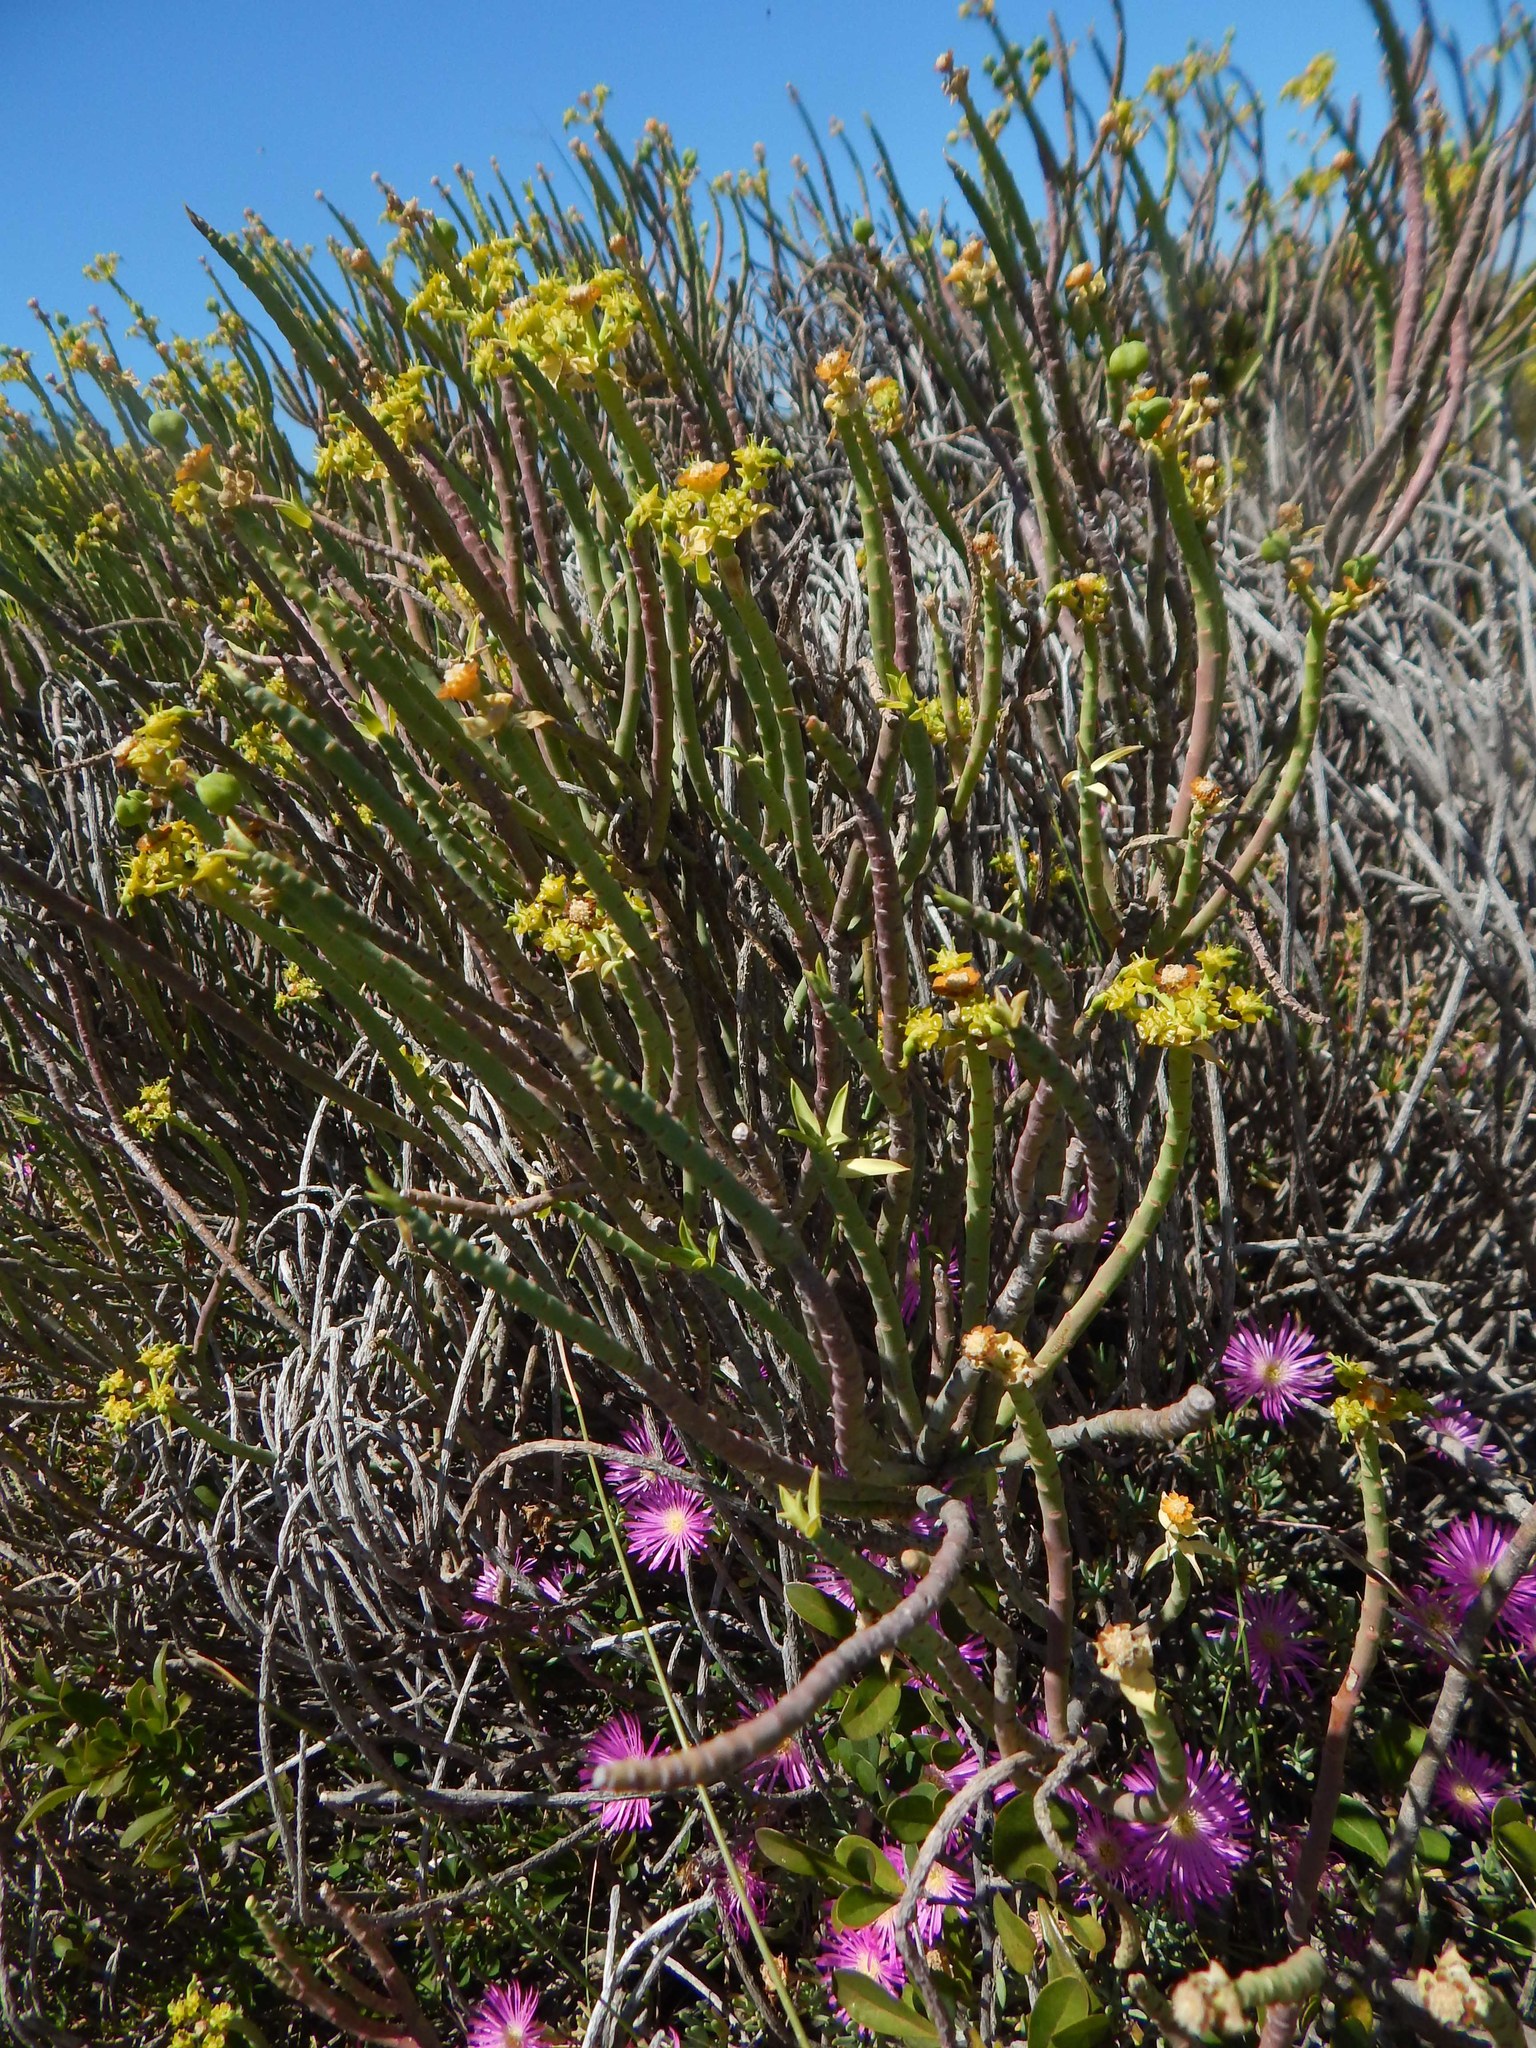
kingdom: Plantae
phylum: Tracheophyta
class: Magnoliopsida
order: Malpighiales
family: Euphorbiaceae
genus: Euphorbia
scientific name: Euphorbia mauritanica
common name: Jackal's-food
